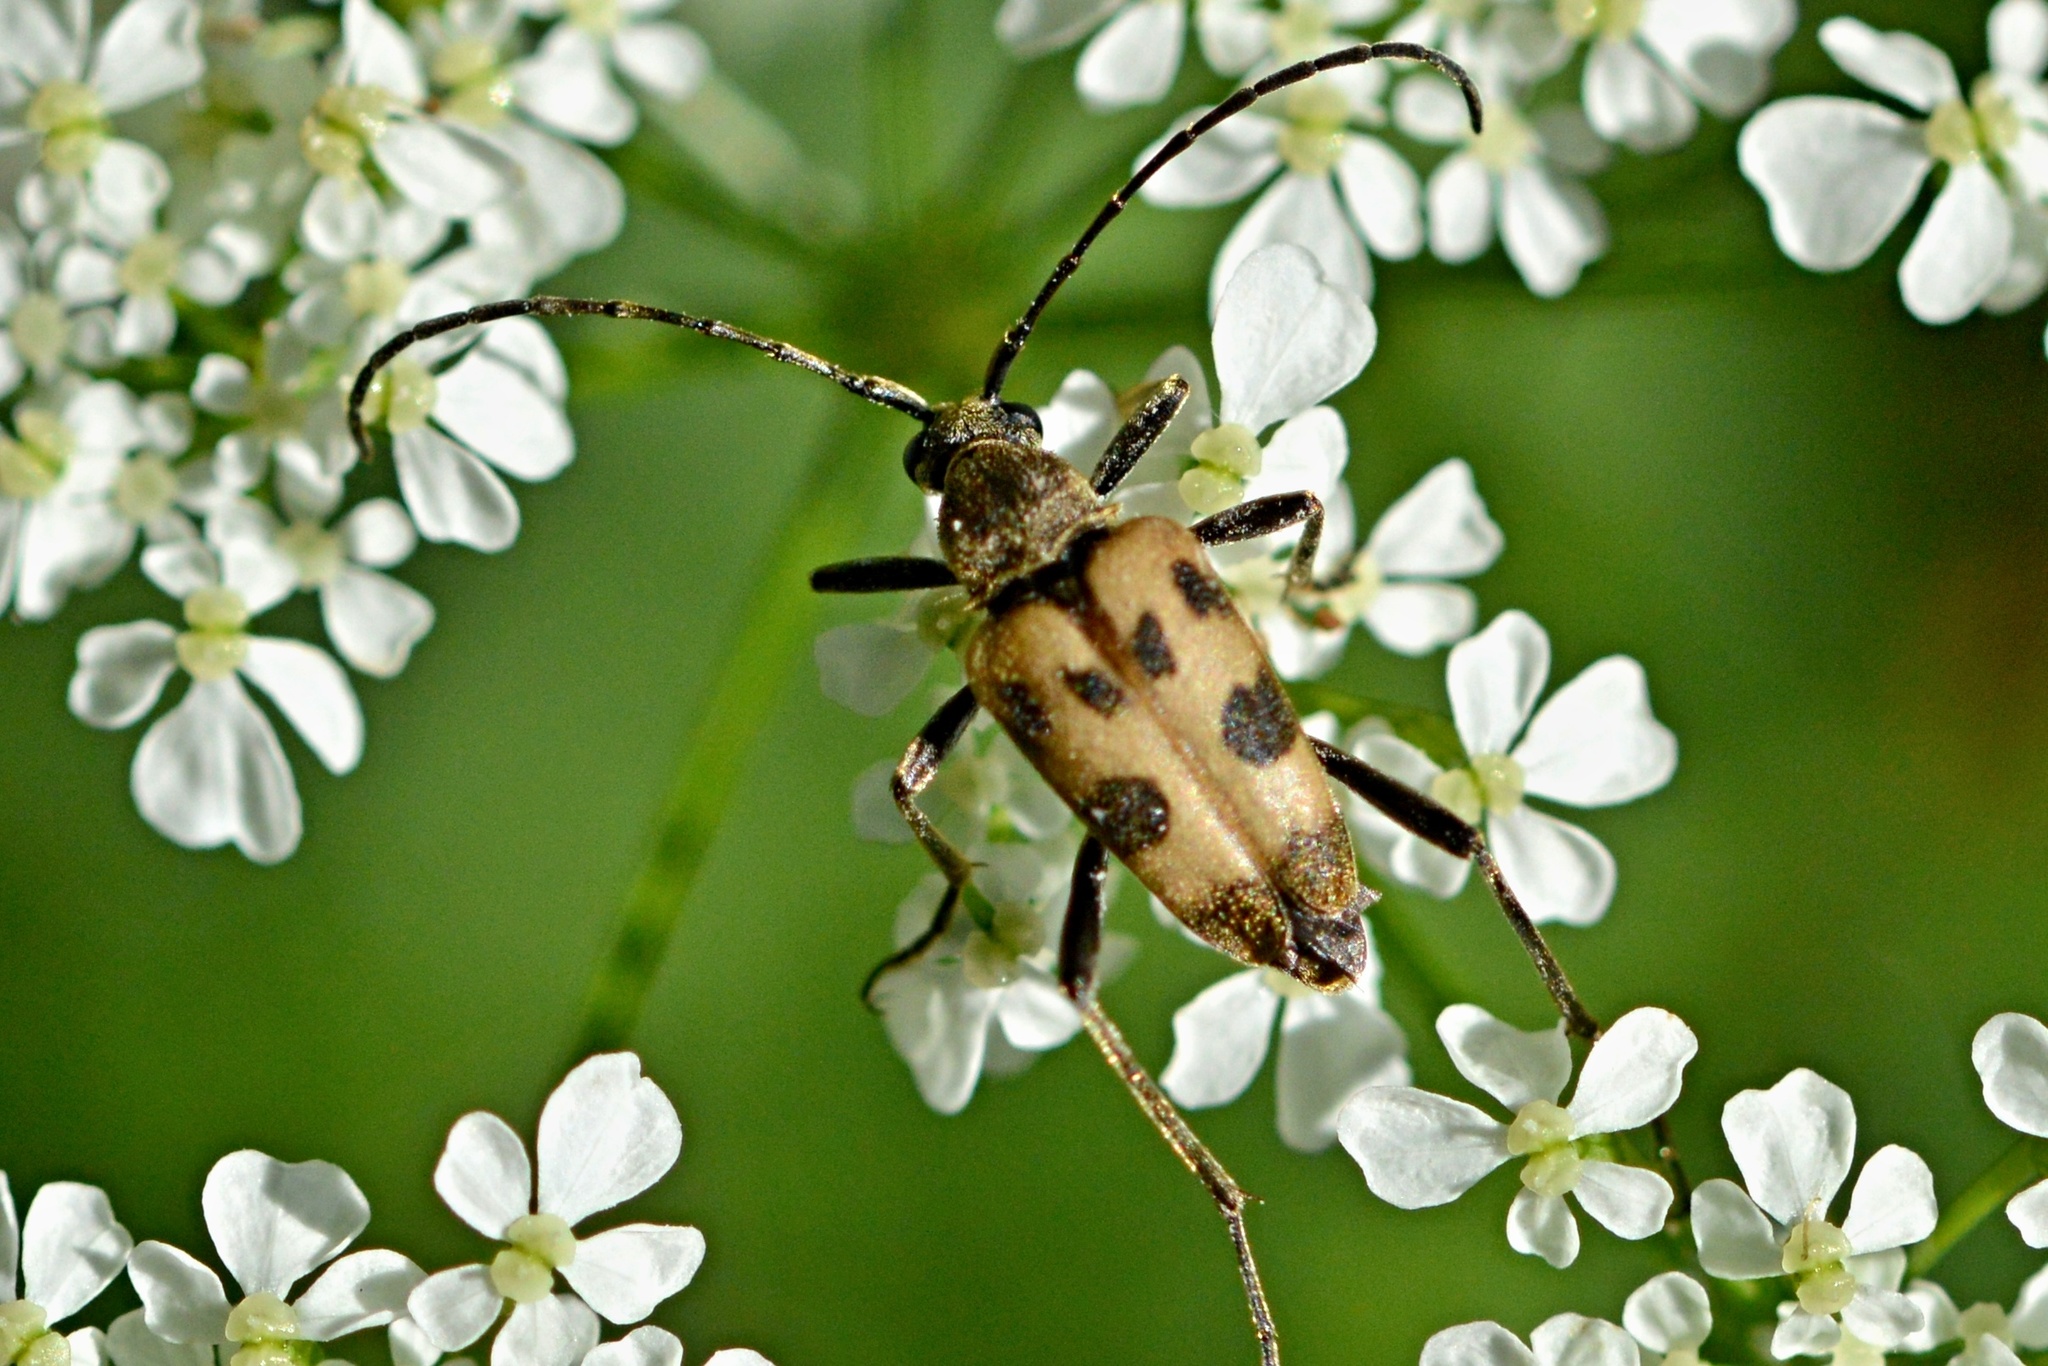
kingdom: Animalia
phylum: Arthropoda
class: Insecta
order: Coleoptera
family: Cerambycidae
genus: Pachytodes
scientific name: Pachytodes cerambyciformis
